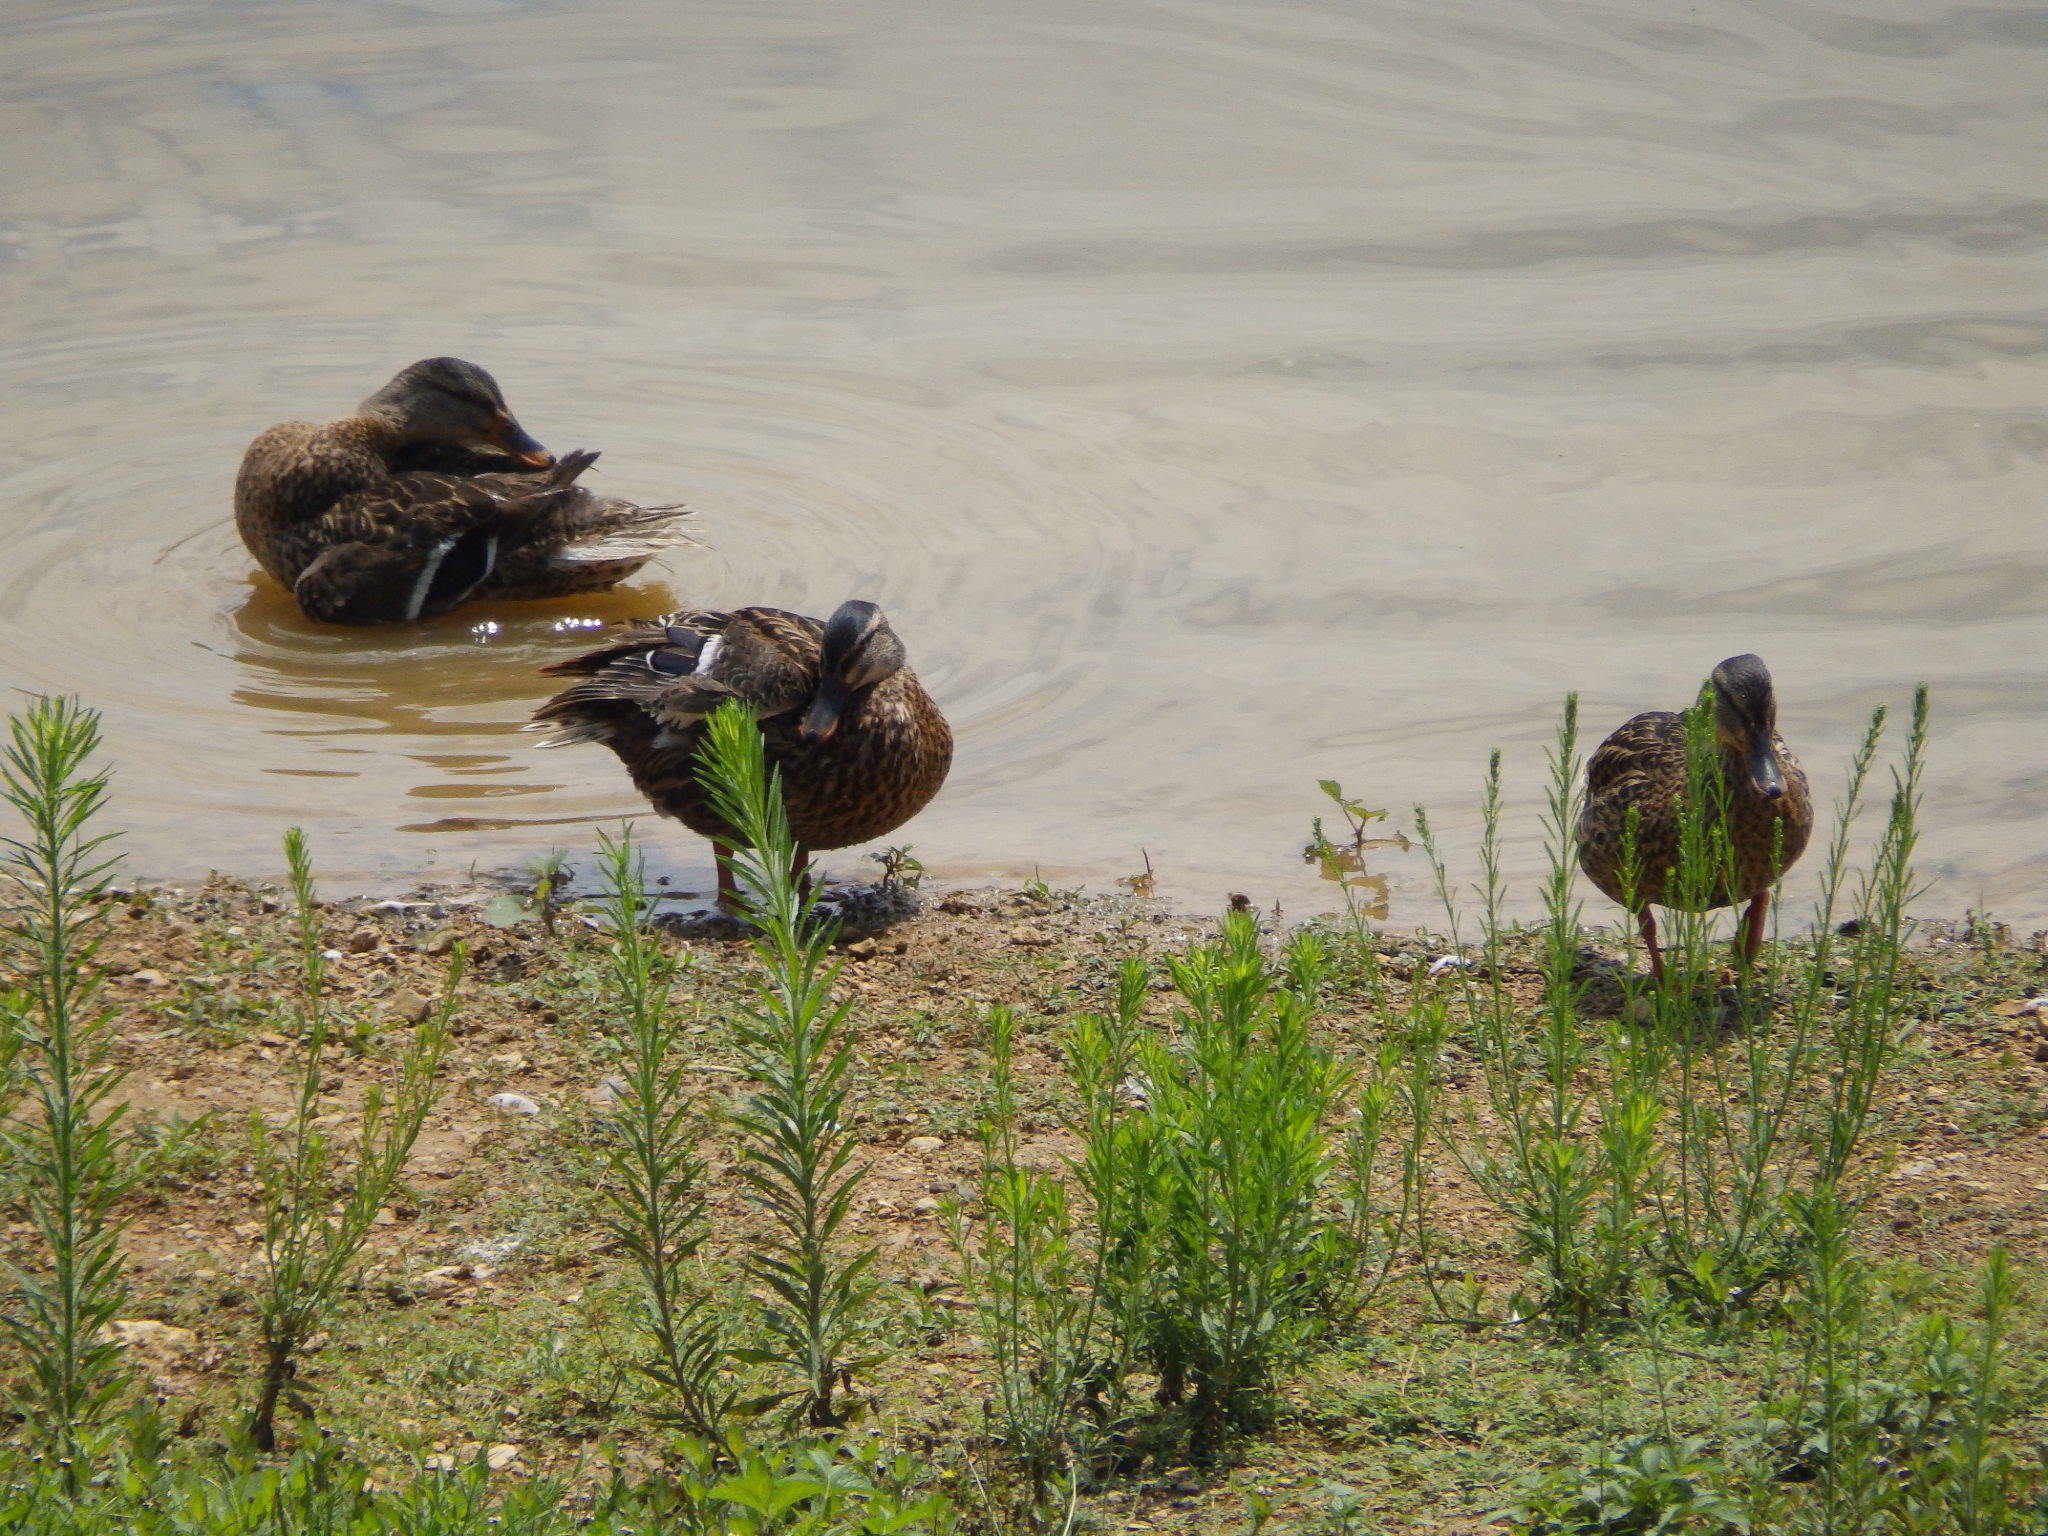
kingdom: Animalia
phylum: Chordata
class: Aves
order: Anseriformes
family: Anatidae
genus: Anas
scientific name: Anas platyrhynchos
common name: Mallard
